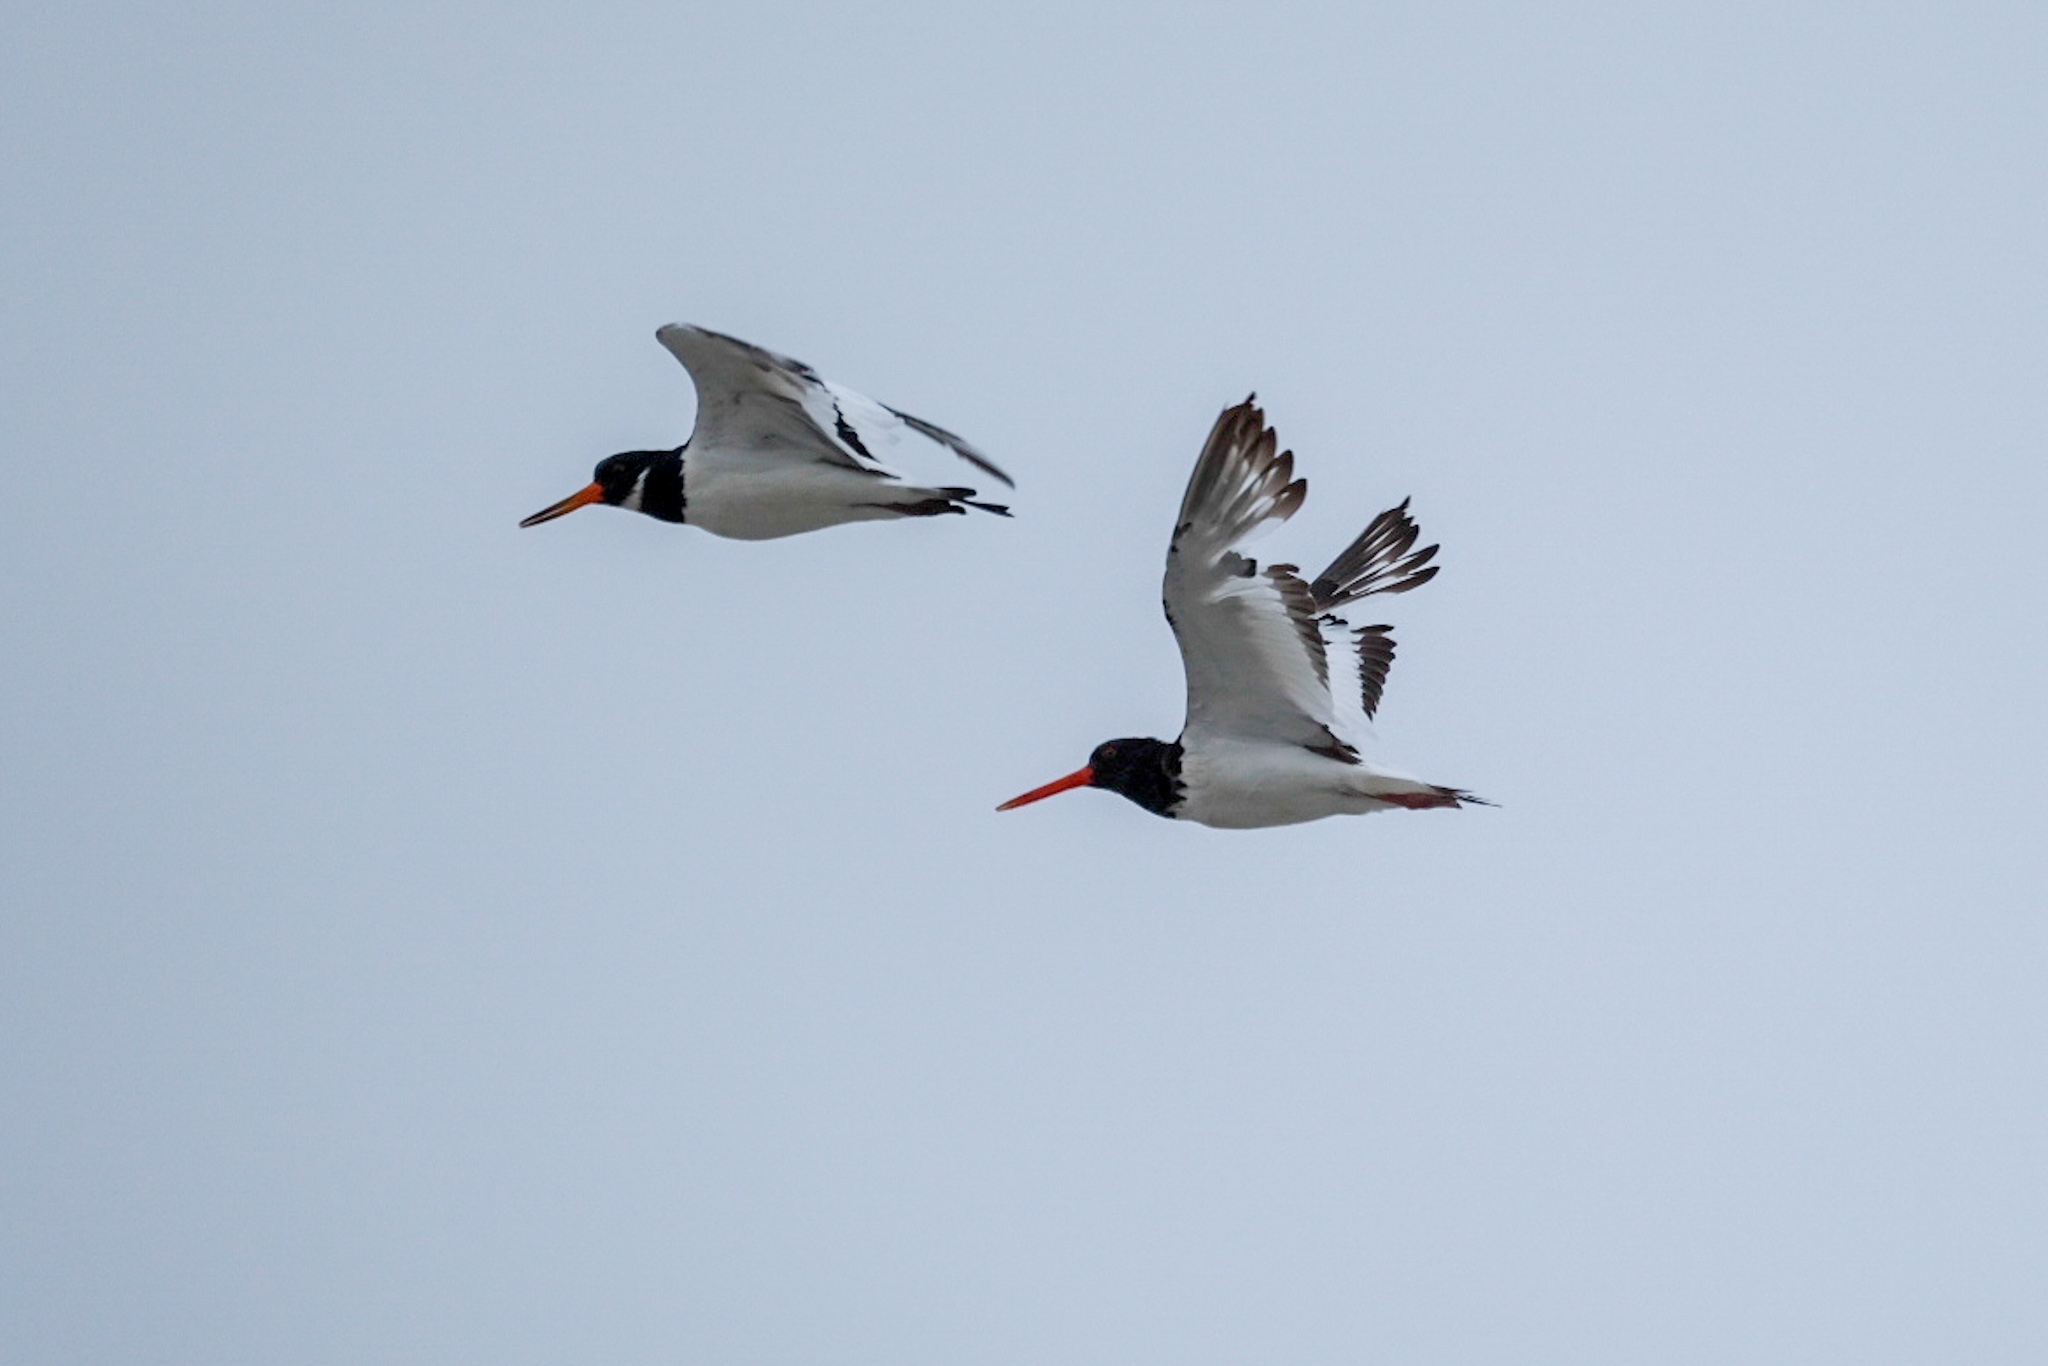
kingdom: Animalia
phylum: Chordata
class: Aves
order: Charadriiformes
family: Haematopodidae
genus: Haematopus
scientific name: Haematopus ostralegus
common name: Eurasian oystercatcher
